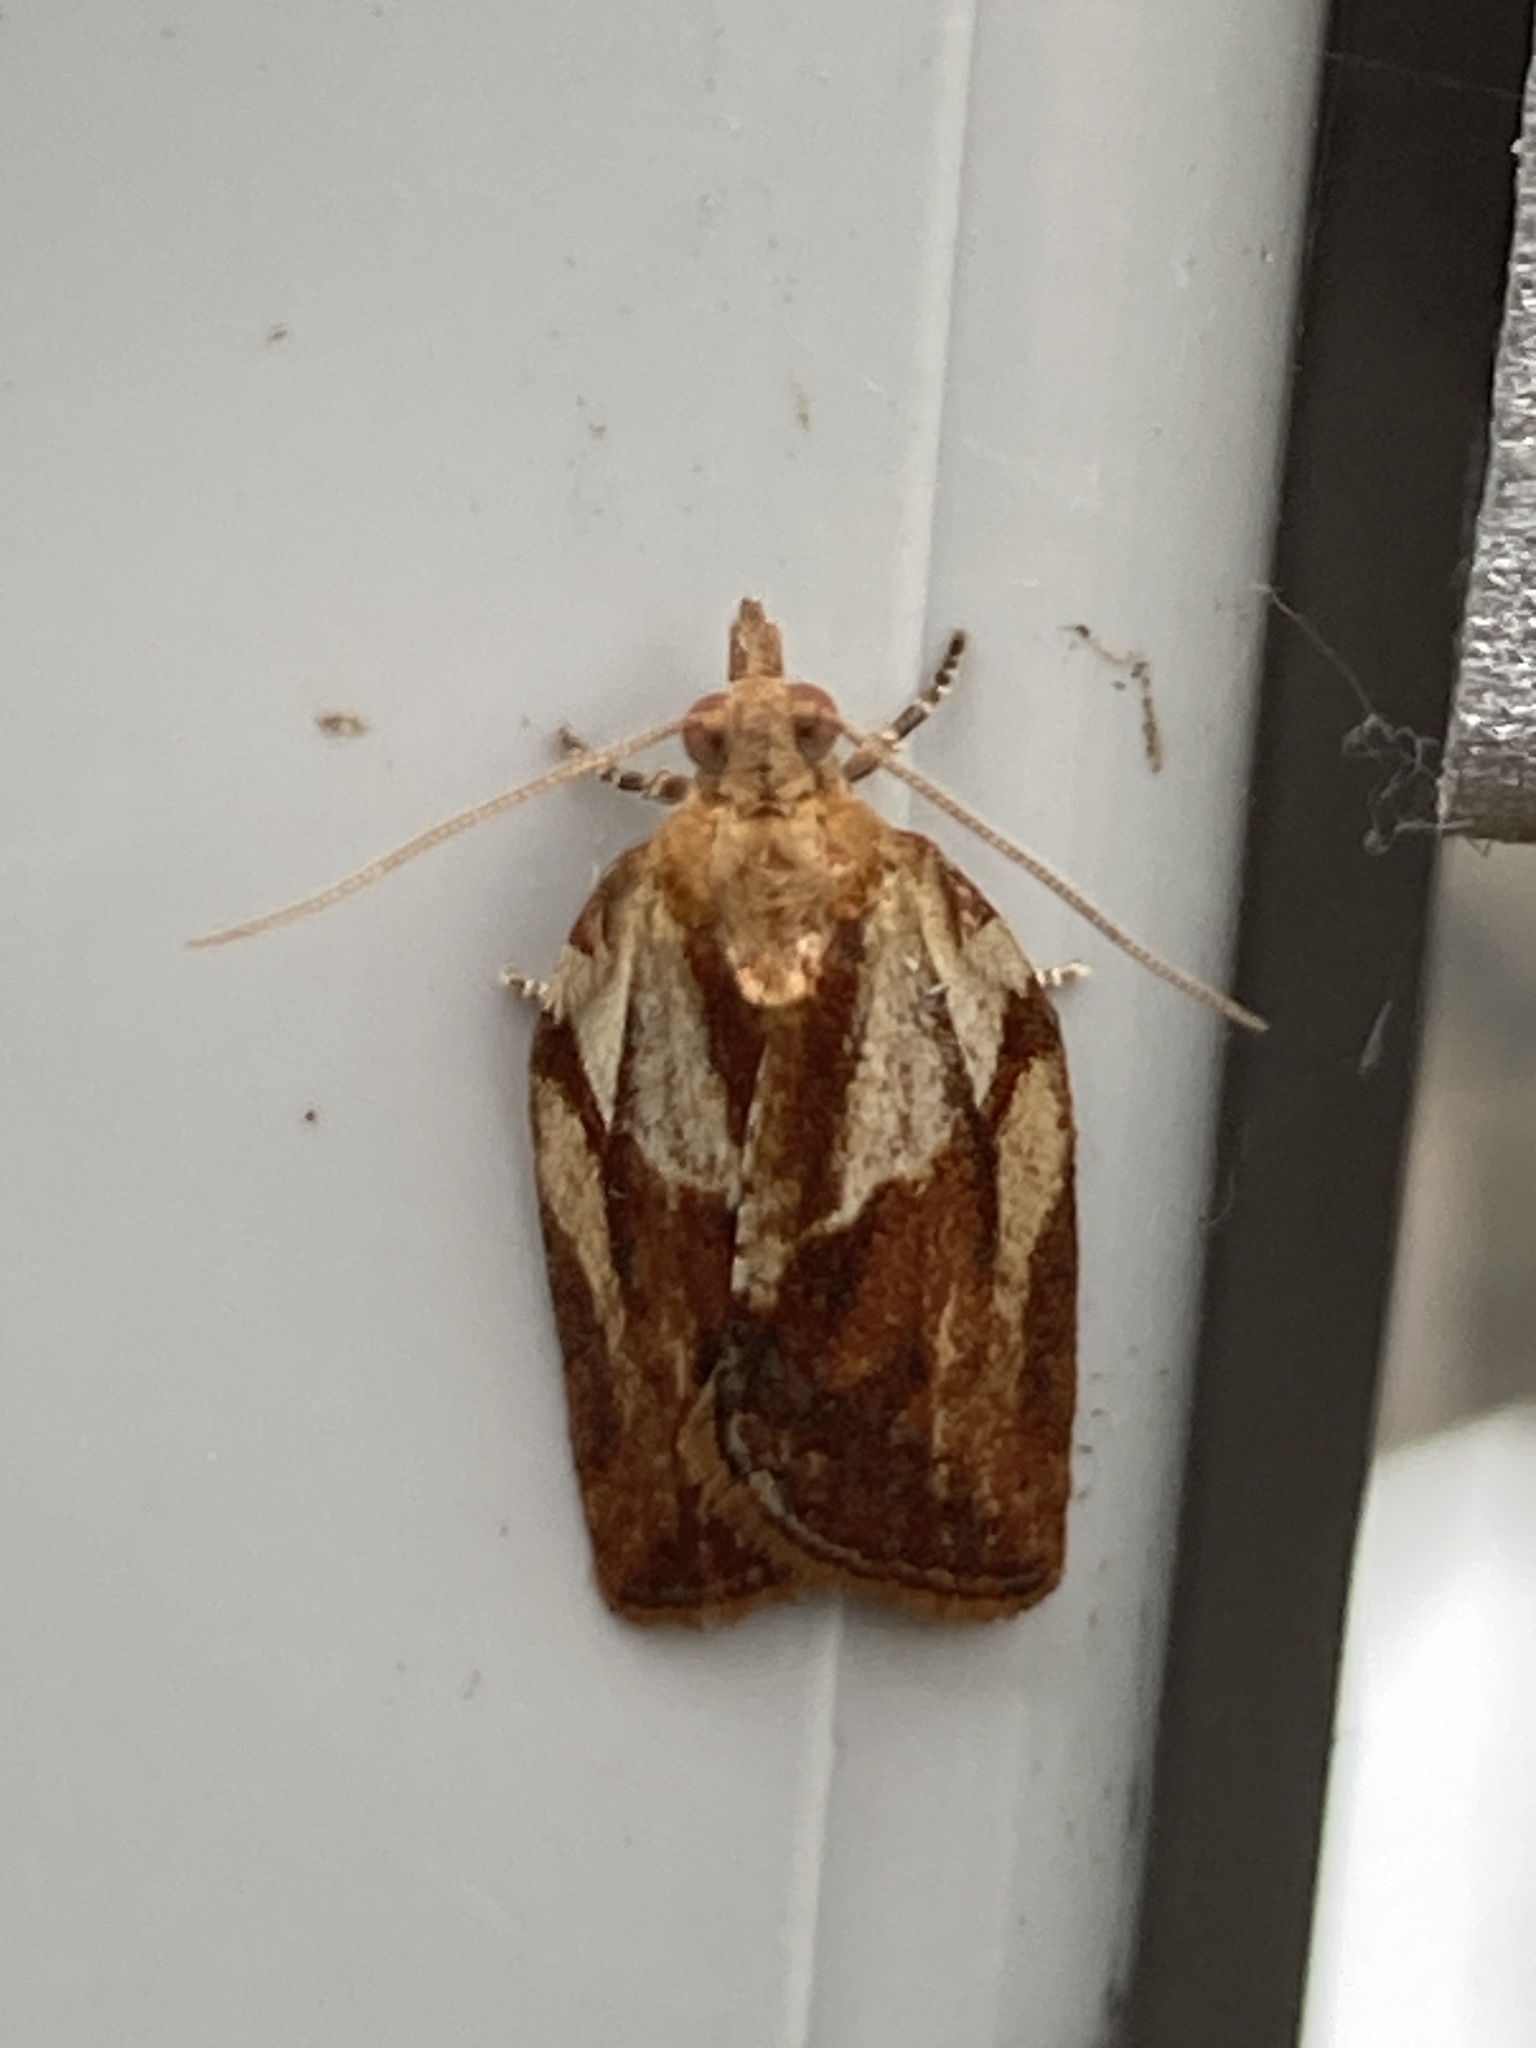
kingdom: Animalia
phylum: Arthropoda
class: Insecta
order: Lepidoptera
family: Tortricidae
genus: Epiphyas
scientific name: Epiphyas postvittana
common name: Light brown apple moth
